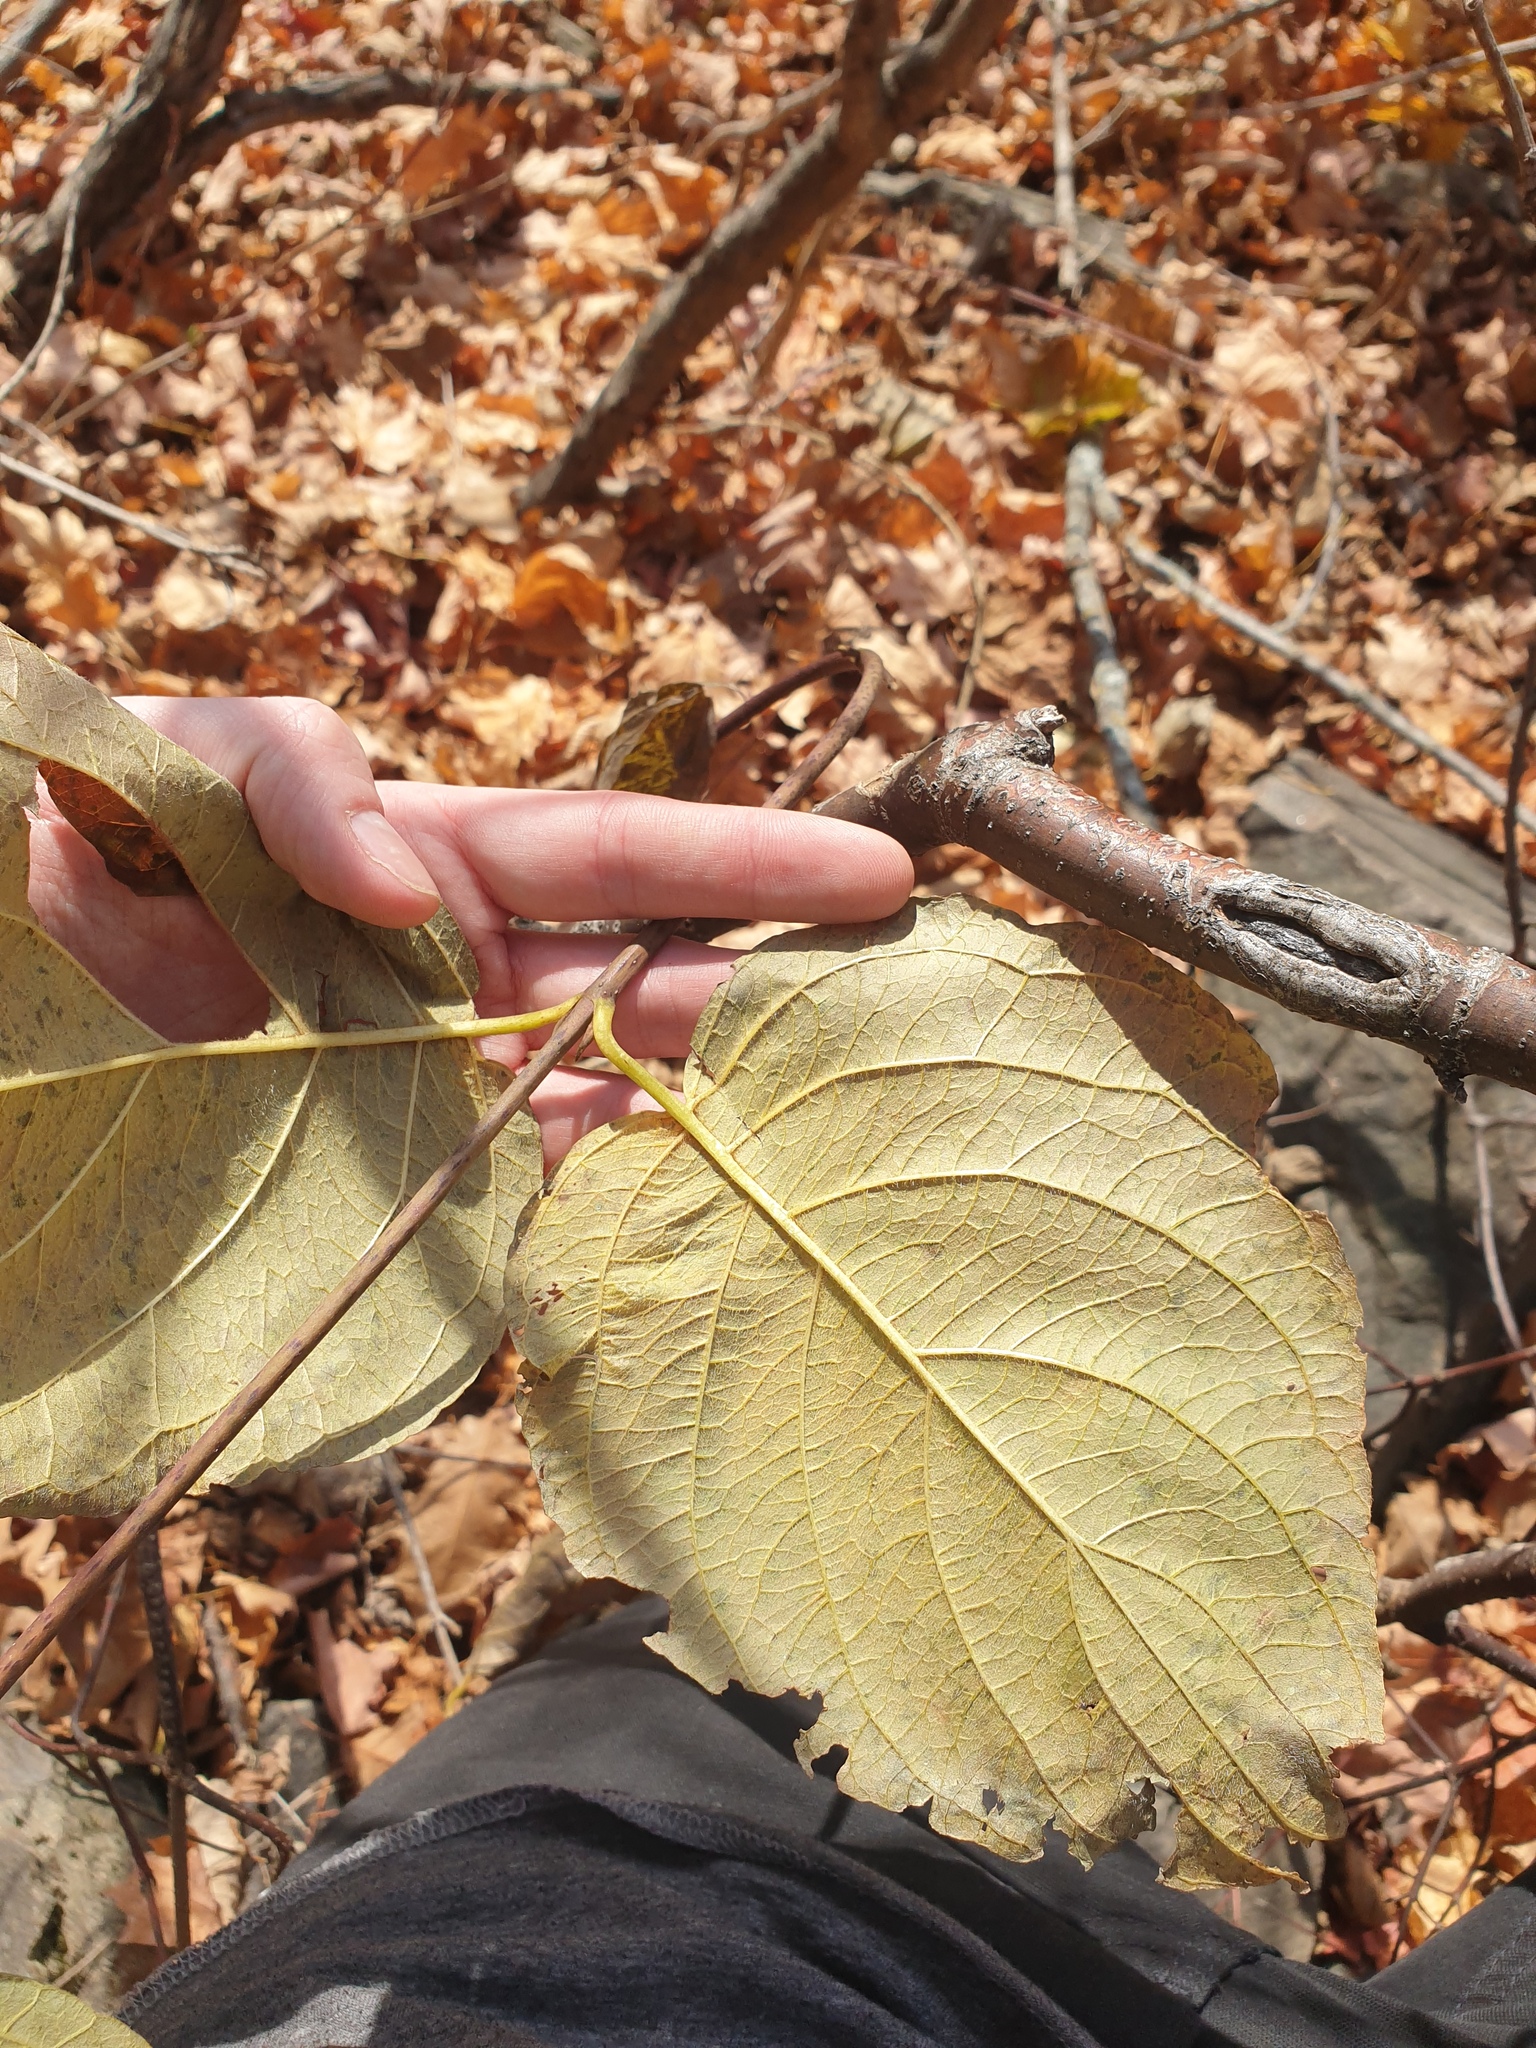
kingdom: Plantae
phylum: Tracheophyta
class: Magnoliopsida
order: Cornales
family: Cornaceae
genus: Cornus
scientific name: Cornus rugosa
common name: Round-leaf dogwood
